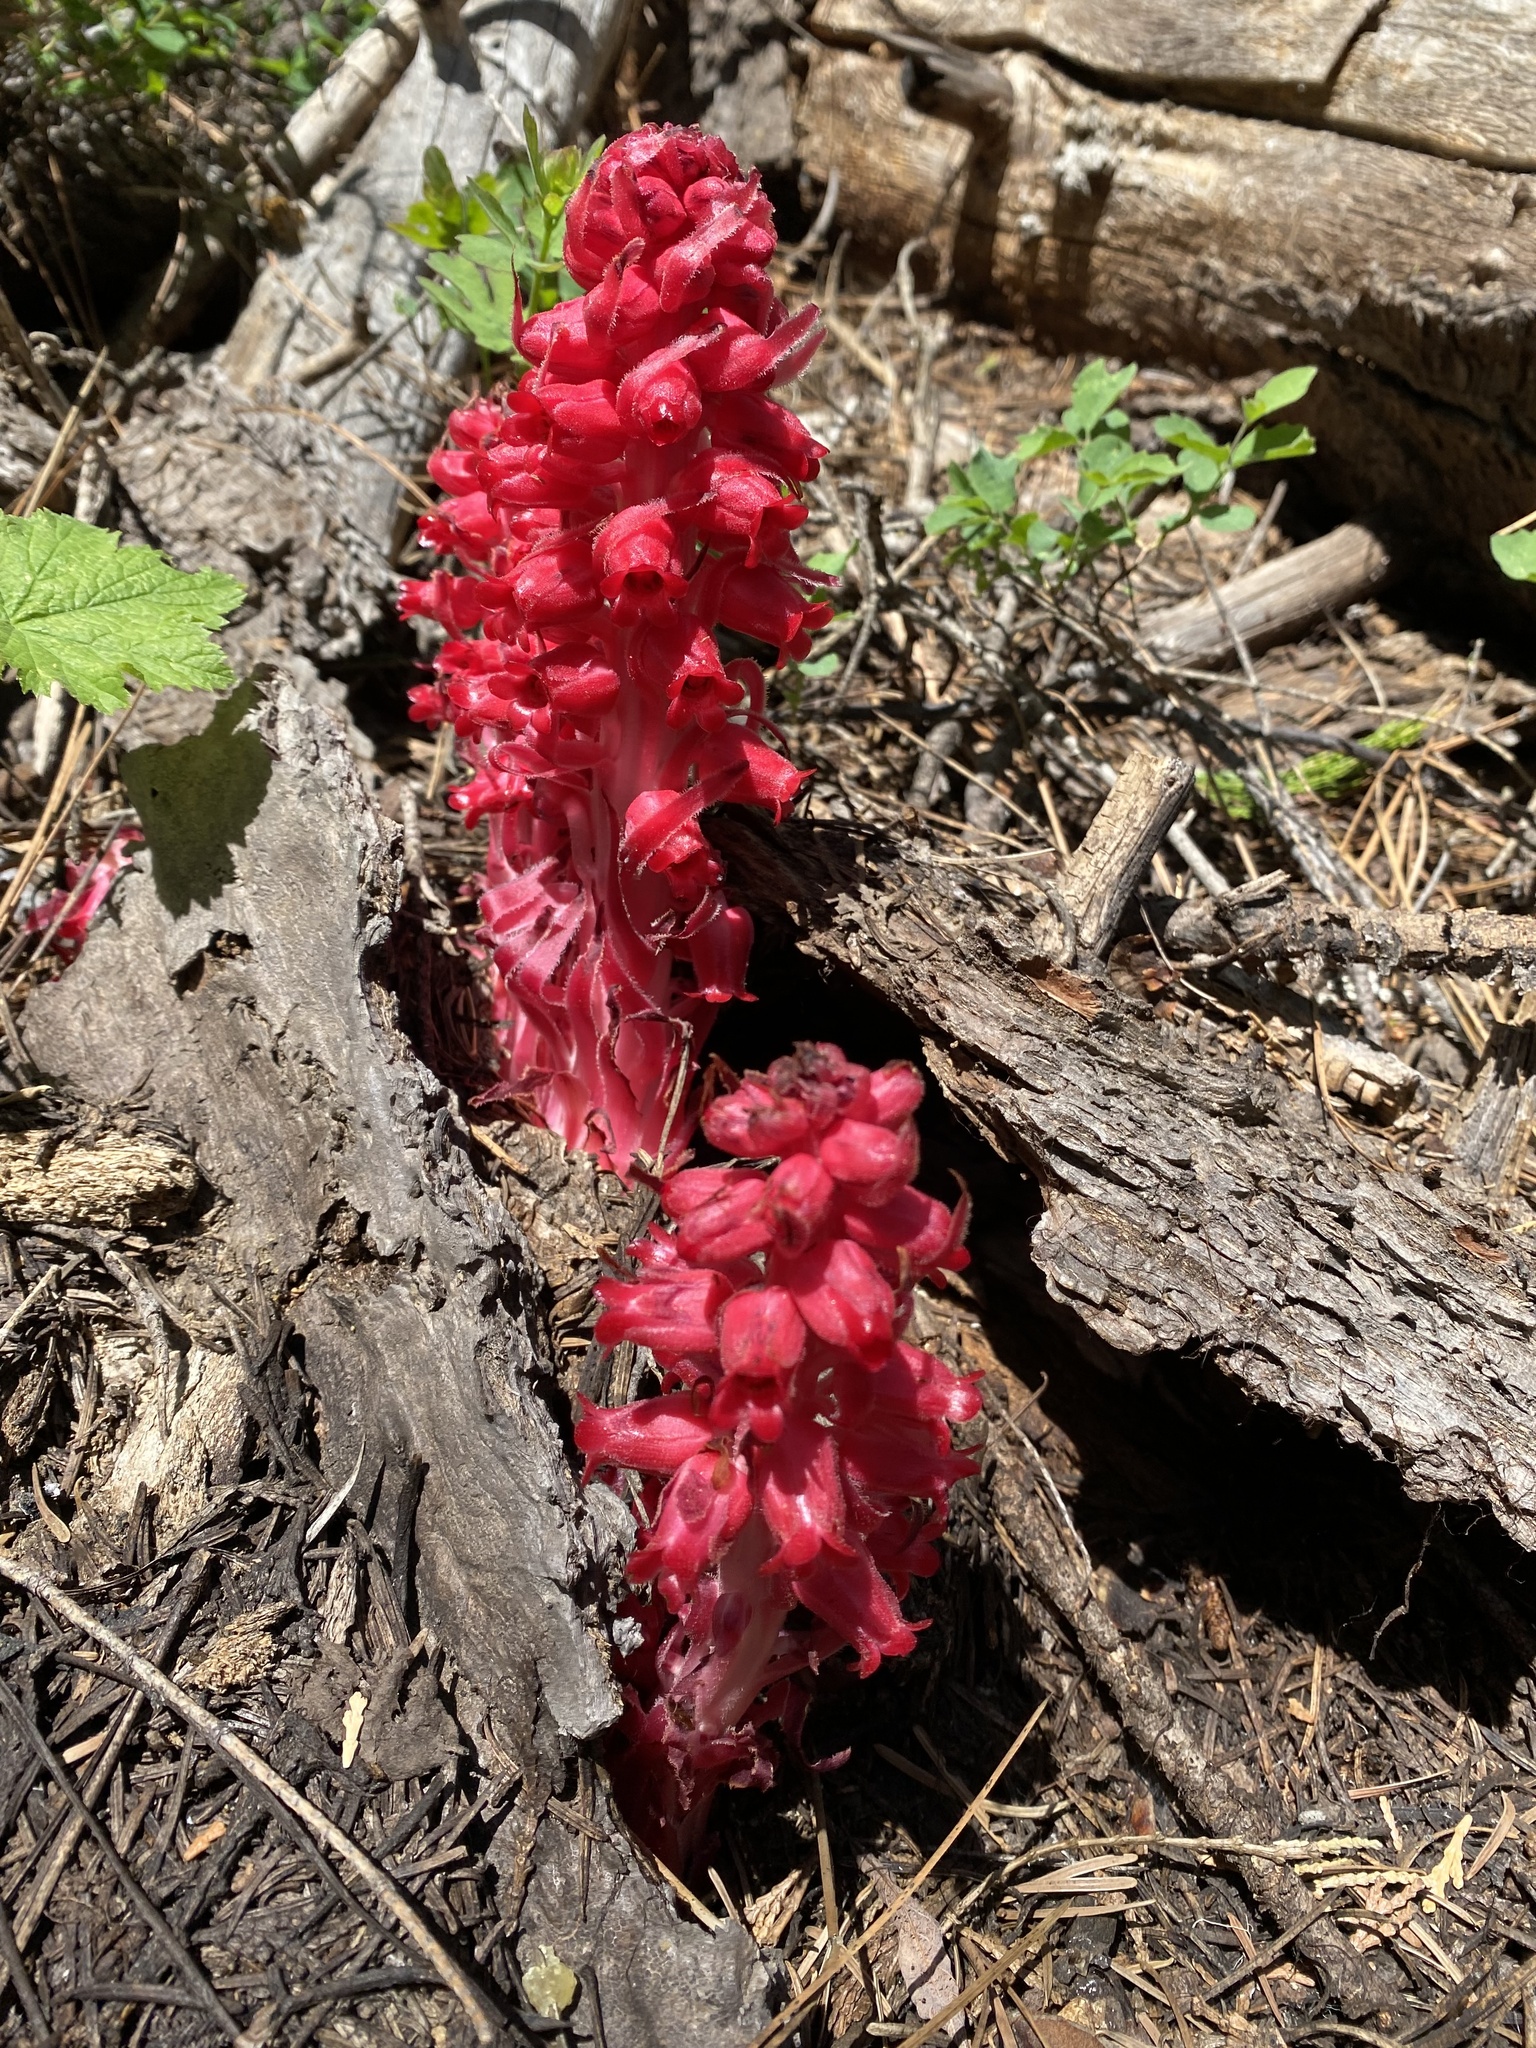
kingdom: Plantae
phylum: Tracheophyta
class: Magnoliopsida
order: Ericales
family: Ericaceae
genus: Sarcodes
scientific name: Sarcodes sanguinea
